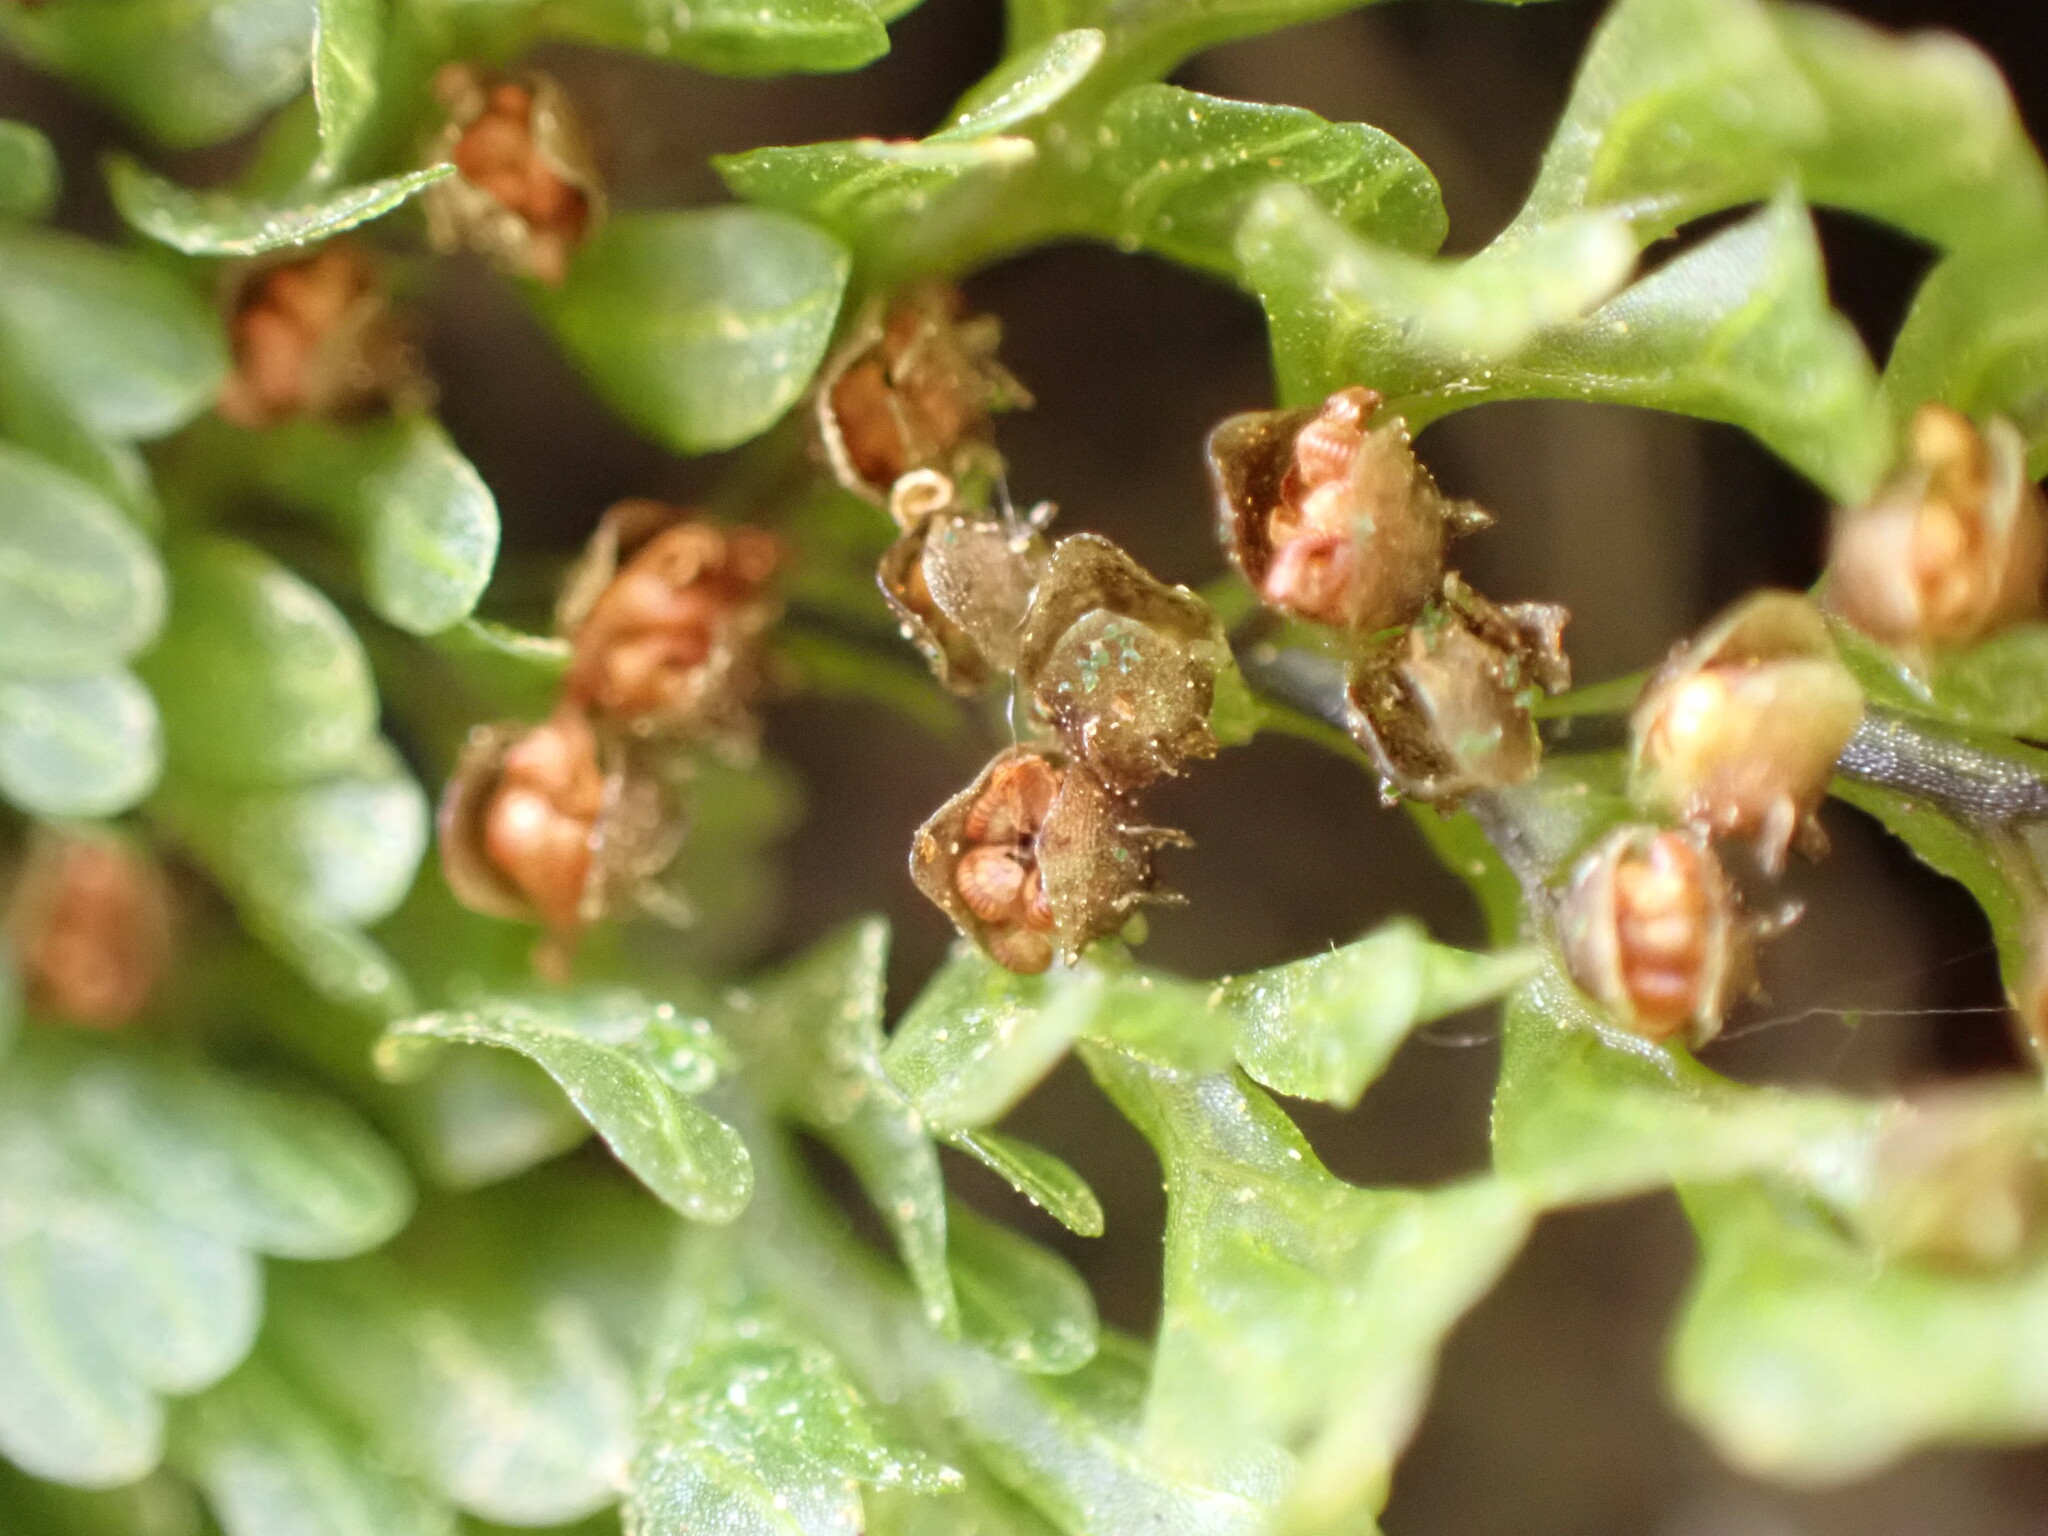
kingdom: Plantae
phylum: Tracheophyta
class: Polypodiopsida
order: Hymenophyllales
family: Hymenophyllaceae
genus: Hymenophyllum
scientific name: Hymenophyllum sanguinolentum
